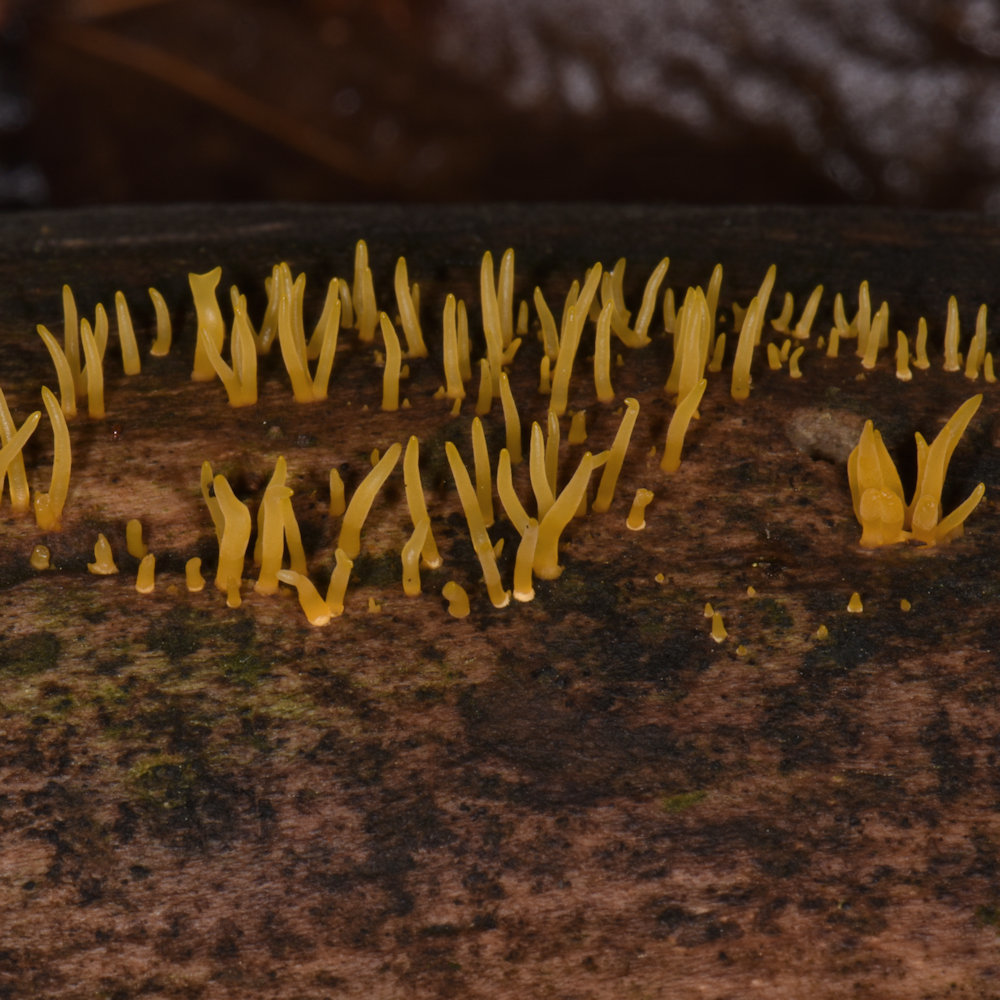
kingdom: Fungi
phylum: Basidiomycota
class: Dacrymycetes
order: Dacrymycetales
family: Dacrymycetaceae
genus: Calocera
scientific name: Calocera cornea
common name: Small stagshorn
